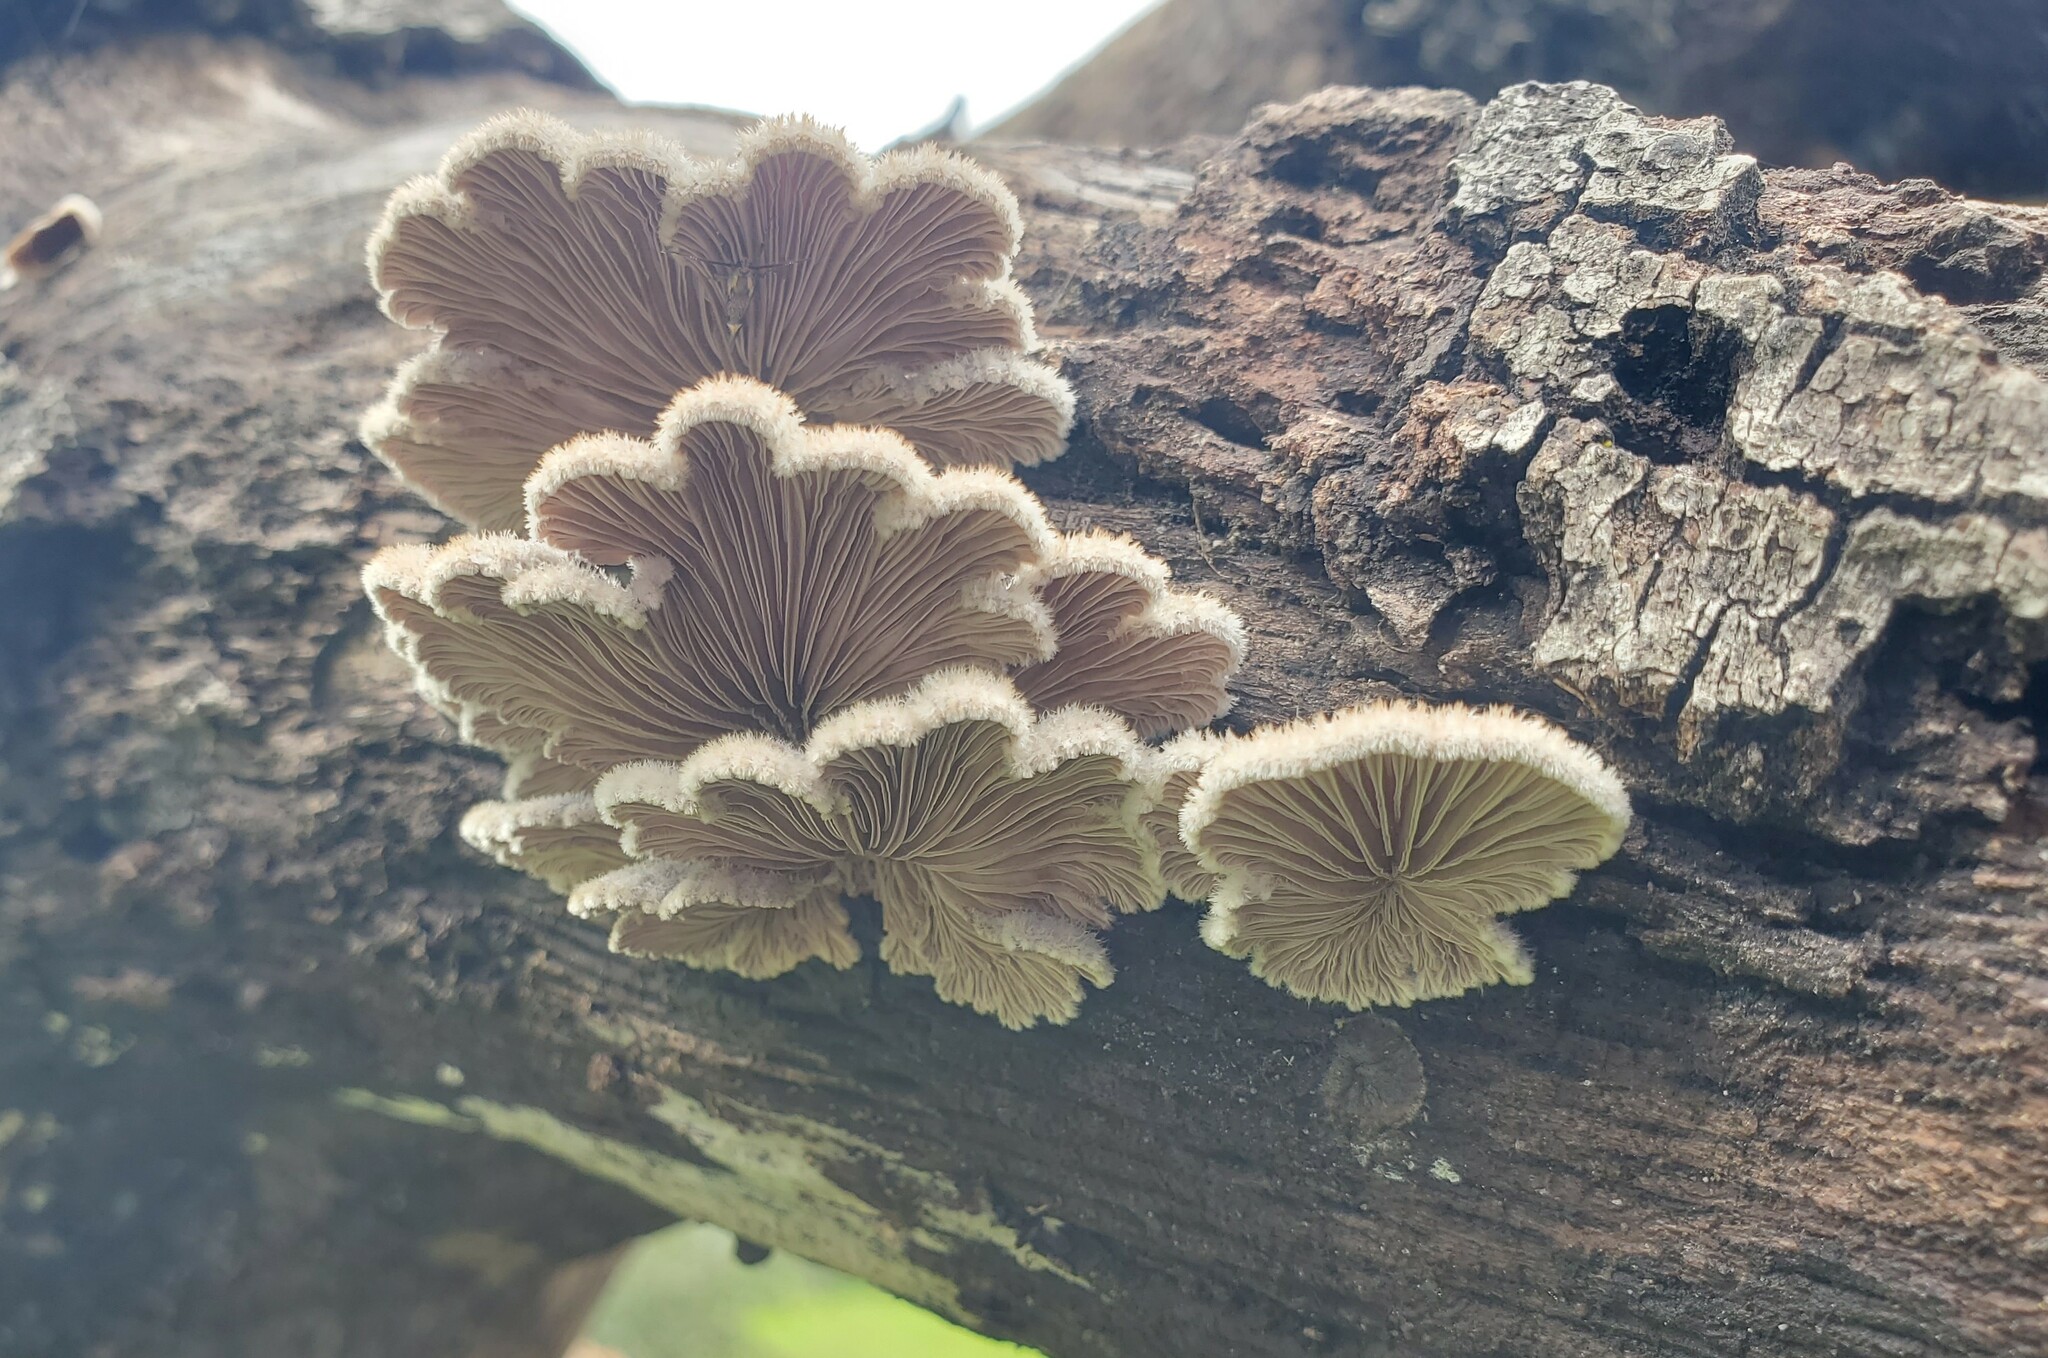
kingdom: Fungi
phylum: Basidiomycota
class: Agaricomycetes
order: Agaricales
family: Schizophyllaceae
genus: Schizophyllum
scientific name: Schizophyllum commune
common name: Common porecrust
